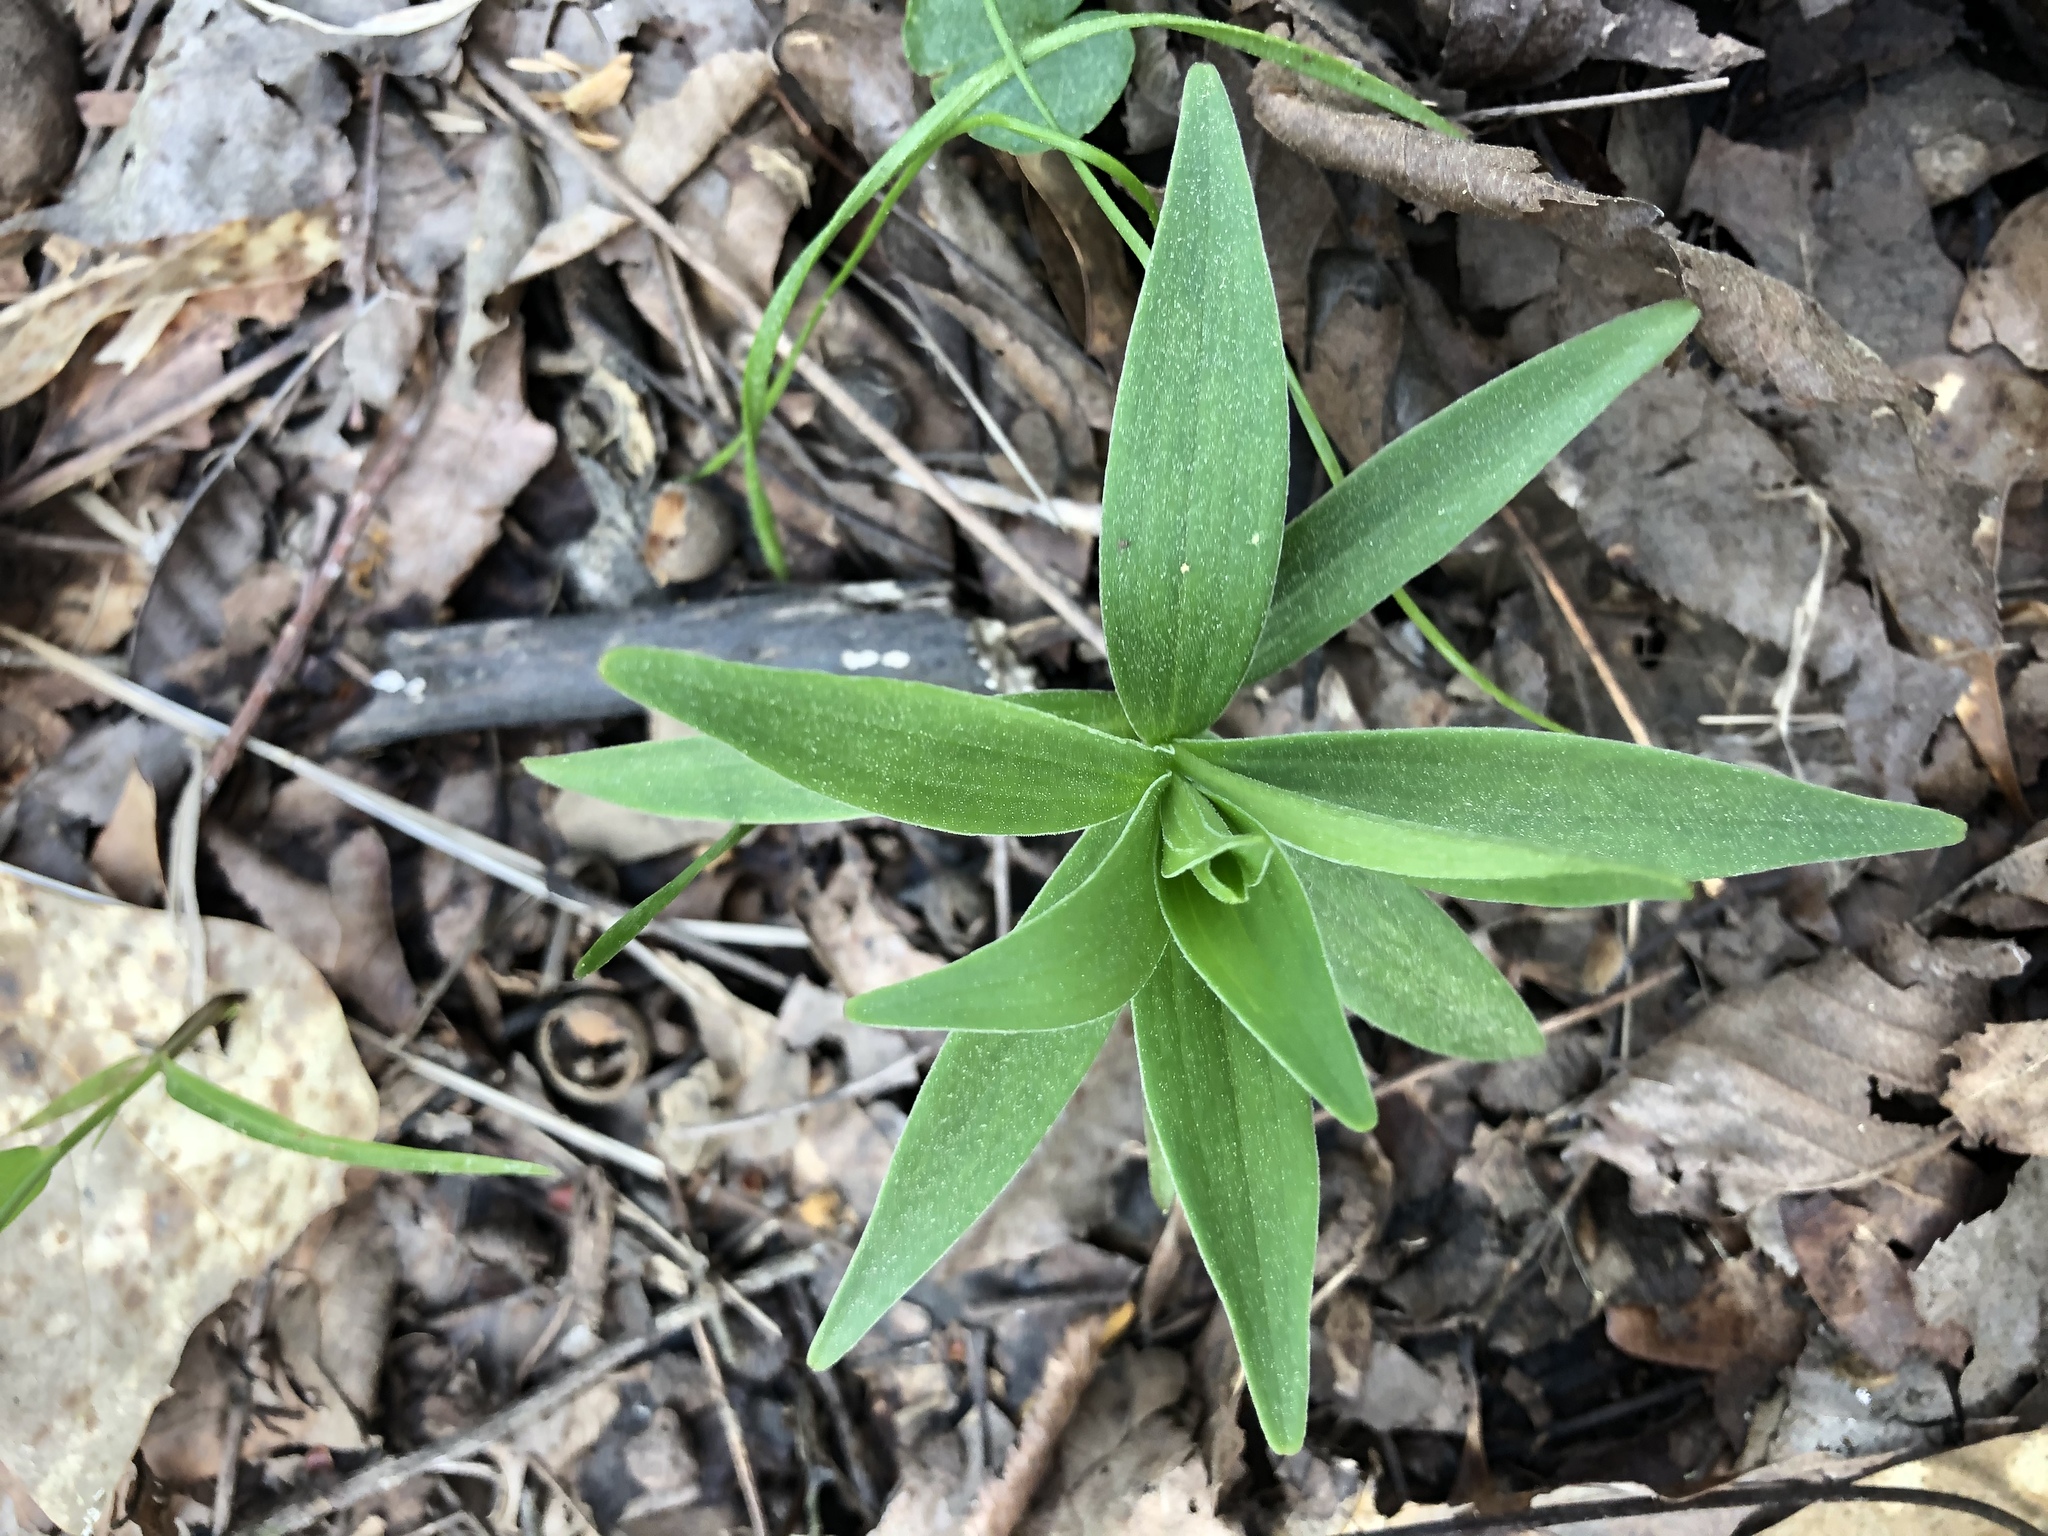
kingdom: Plantae
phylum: Tracheophyta
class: Liliopsida
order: Liliales
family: Liliaceae
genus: Lilium
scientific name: Lilium superbum
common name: American turk's-cap lily
